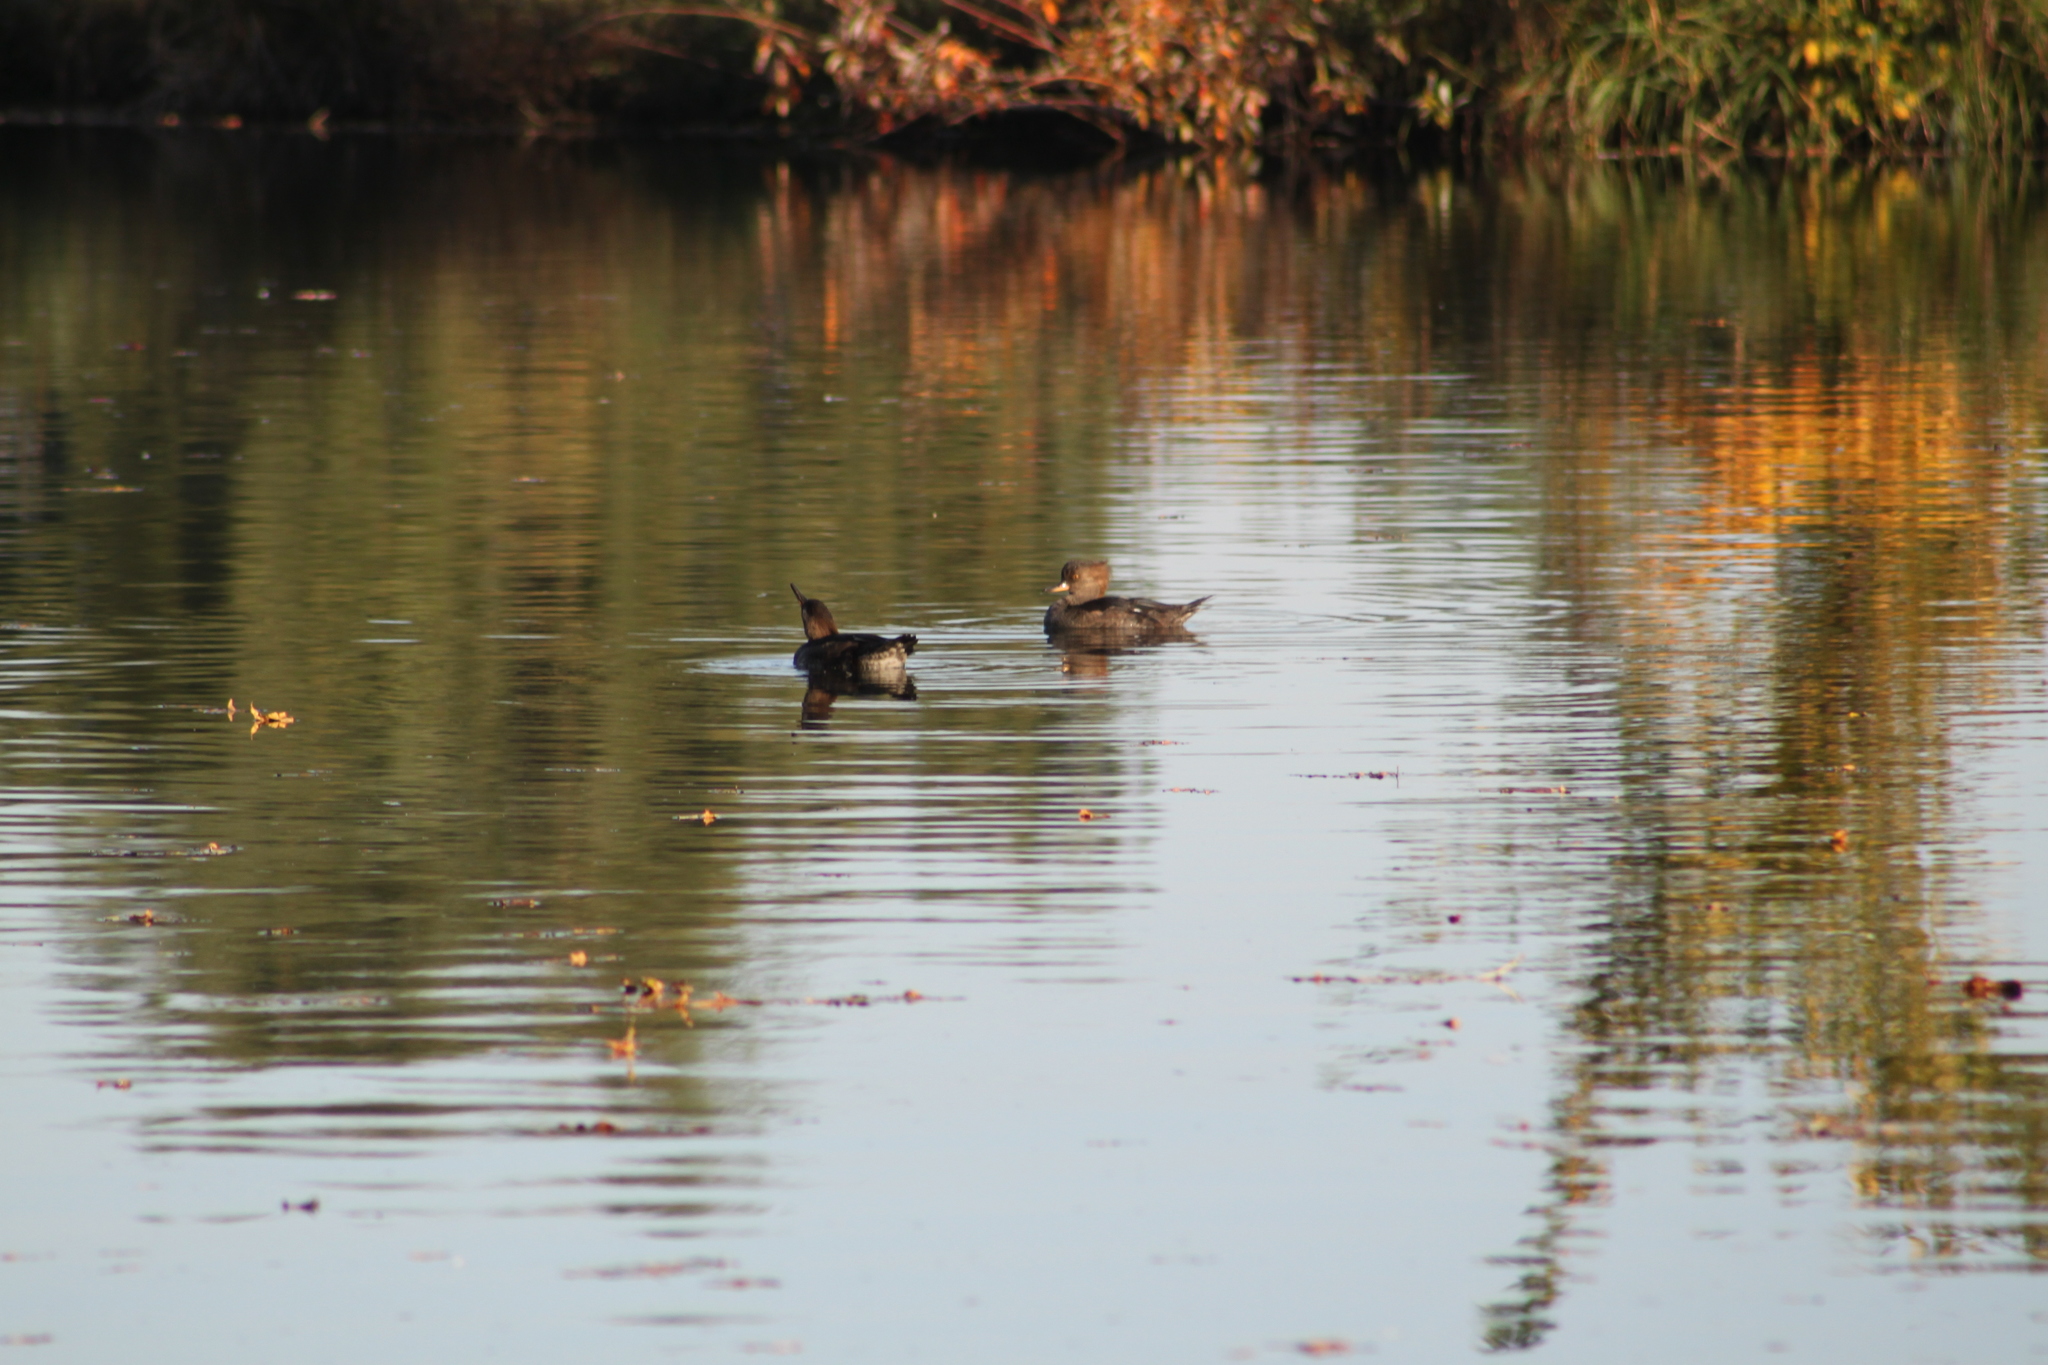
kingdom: Animalia
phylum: Chordata
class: Aves
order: Anseriformes
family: Anatidae
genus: Lophodytes
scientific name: Lophodytes cucullatus
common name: Hooded merganser
